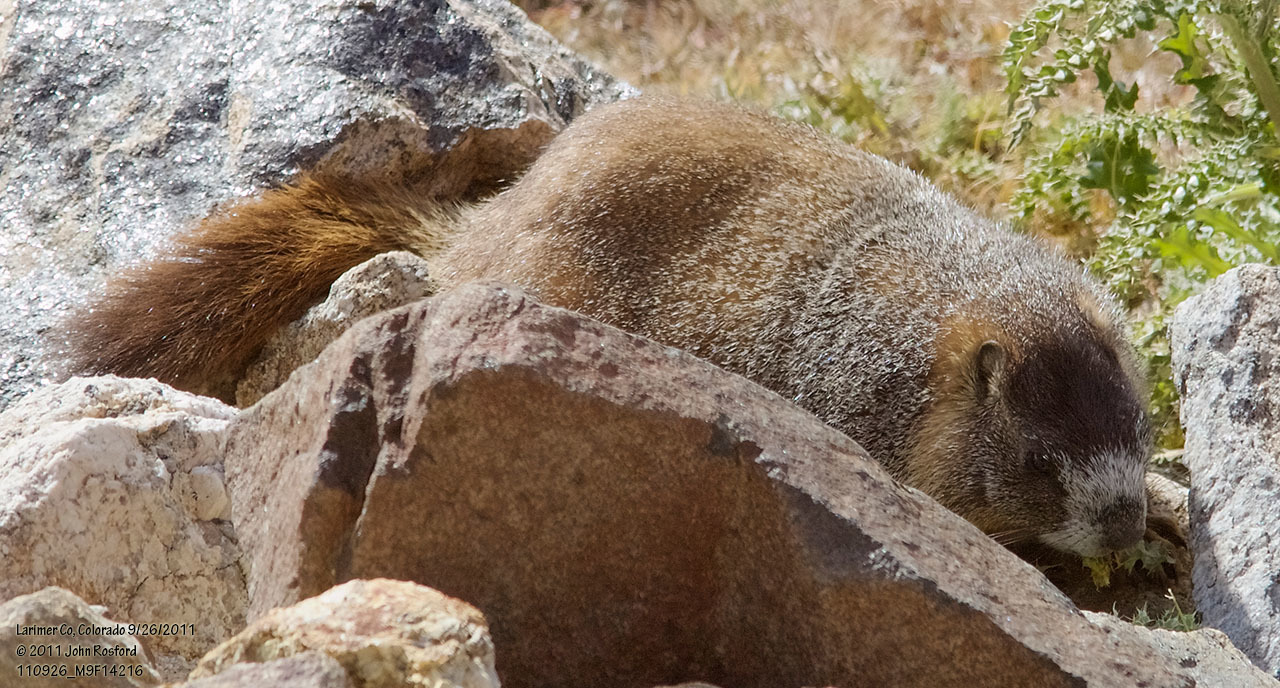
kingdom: Animalia
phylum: Chordata
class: Mammalia
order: Rodentia
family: Sciuridae
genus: Marmota
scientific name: Marmota flaviventris
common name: Yellow-bellied marmot
